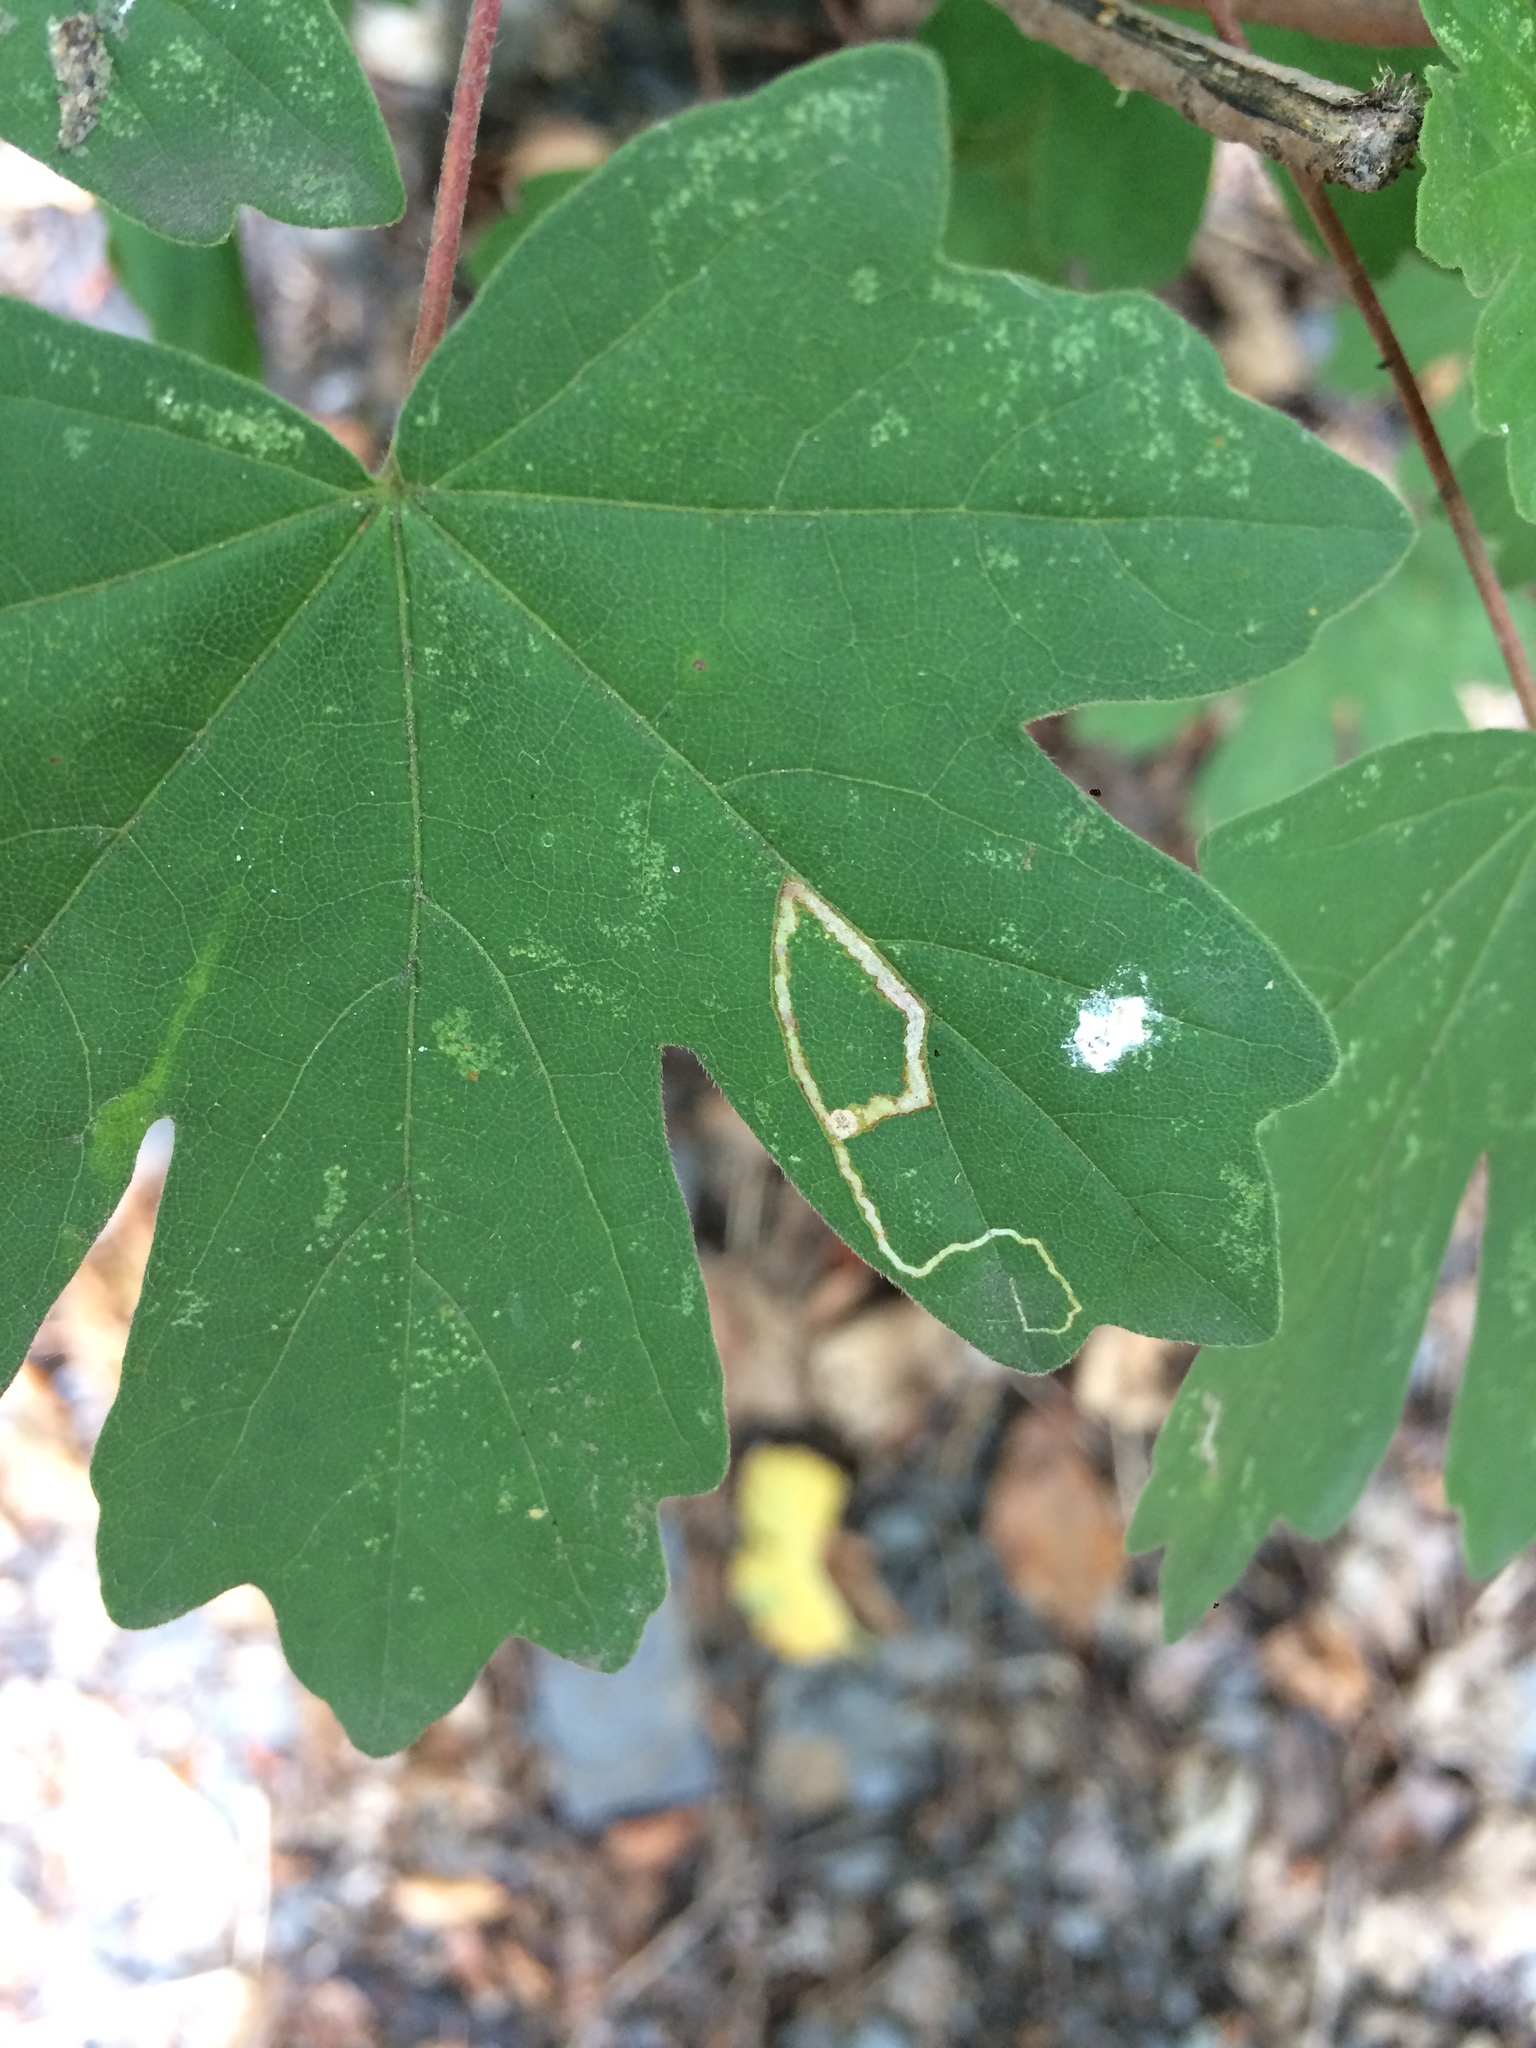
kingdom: Animalia
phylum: Arthropoda
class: Insecta
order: Lepidoptera
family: Nepticulidae
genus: Stigmella
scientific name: Stigmella aceris
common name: Scarce maple pigmy
